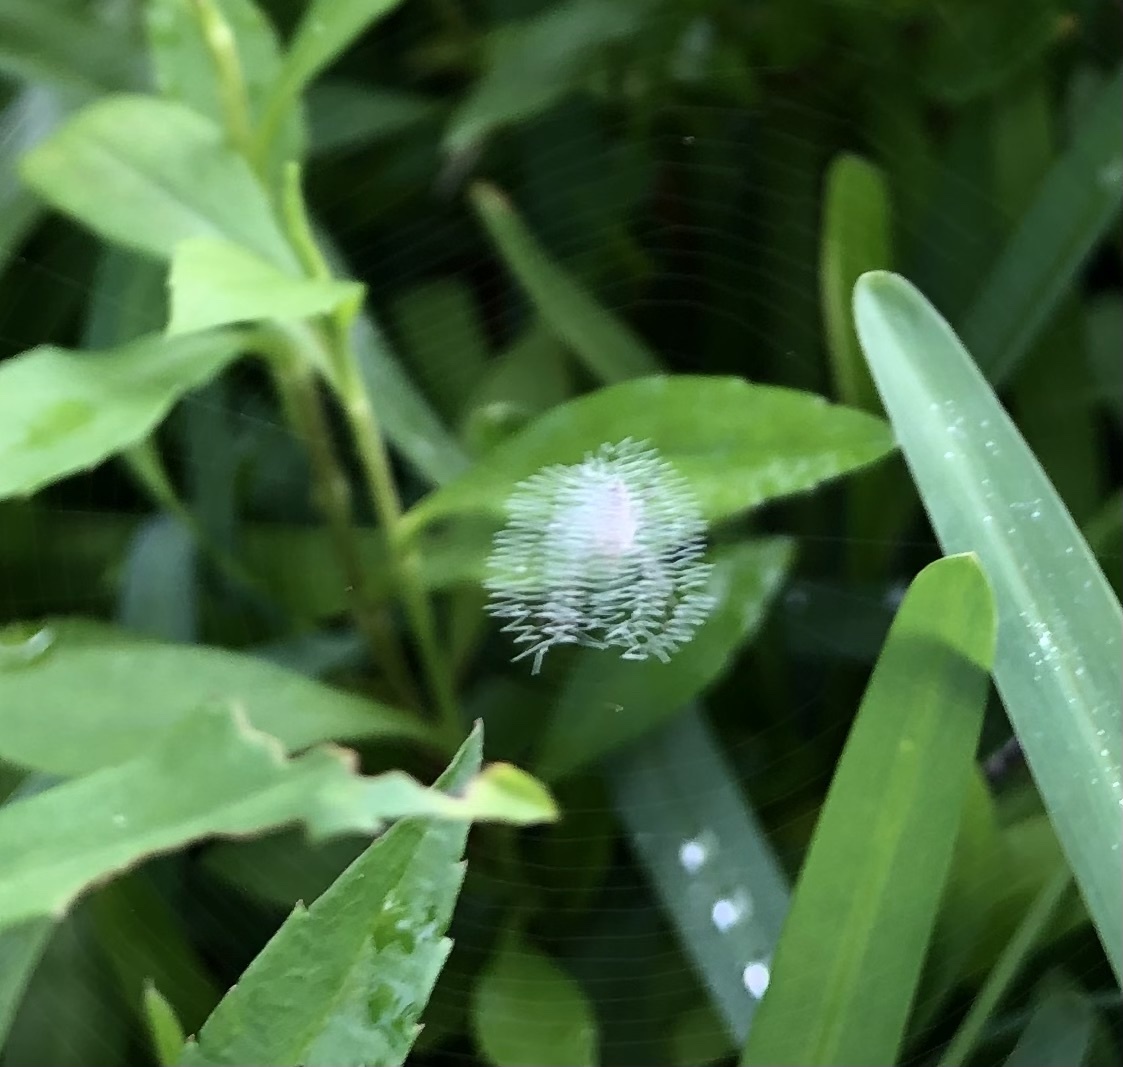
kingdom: Animalia
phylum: Arthropoda
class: Arachnida
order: Araneae
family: Araneidae
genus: Argiope
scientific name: Argiope aurantia
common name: Orb weavers
